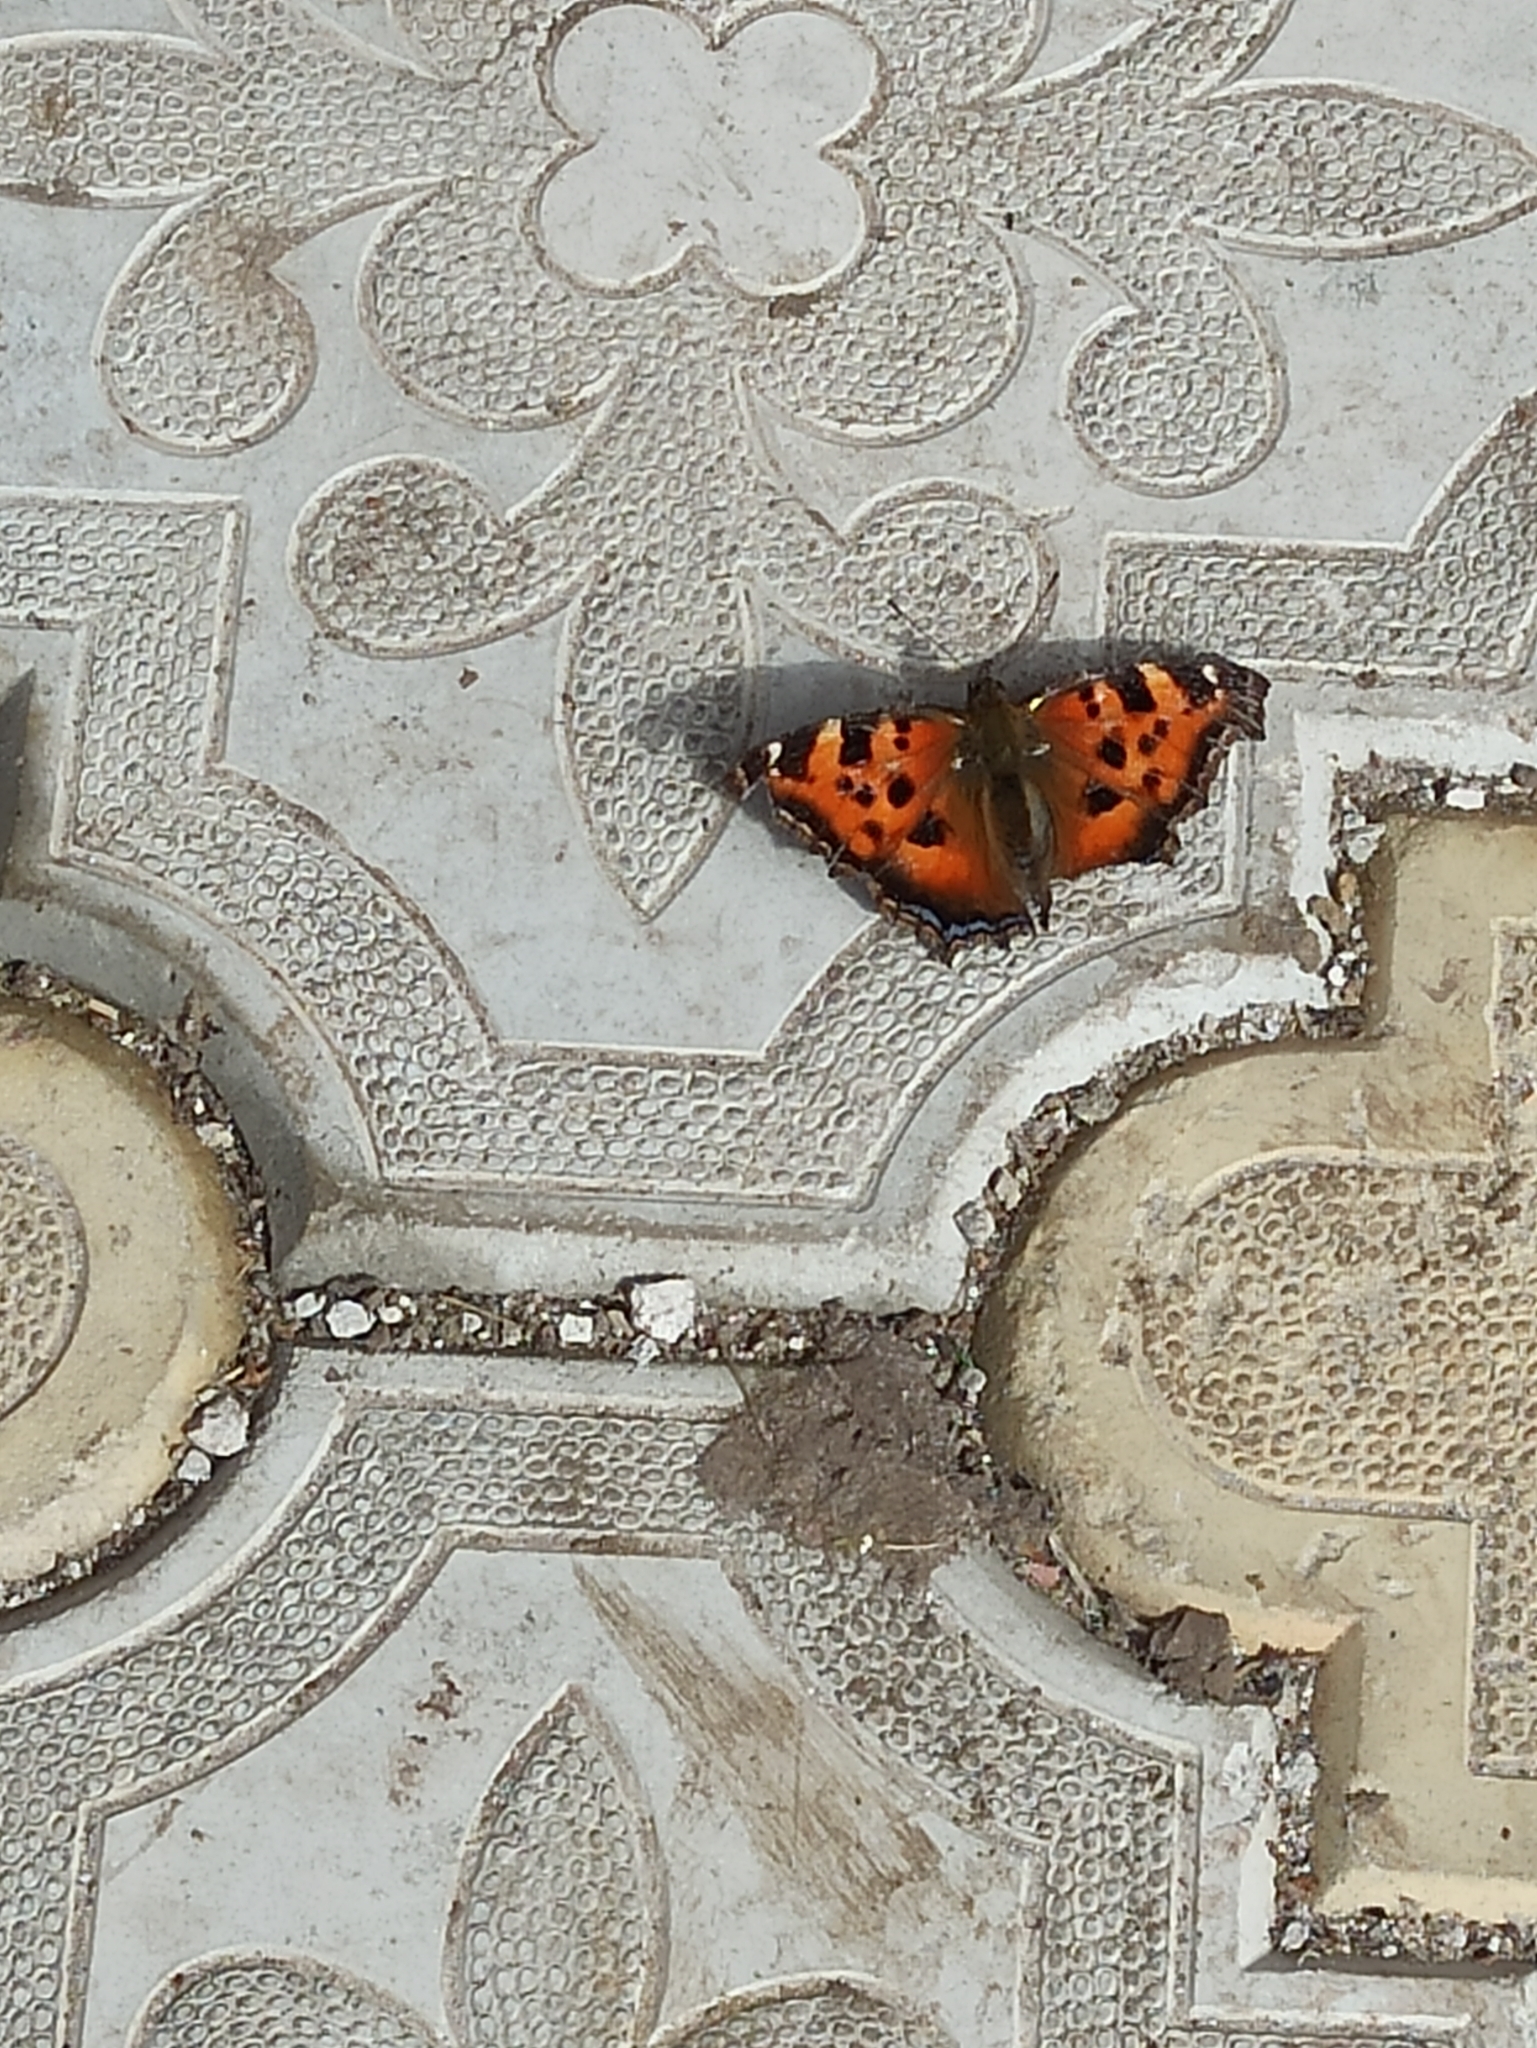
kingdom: Animalia
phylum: Arthropoda
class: Insecta
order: Lepidoptera
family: Nymphalidae
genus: Nymphalis
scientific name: Nymphalis xanthomelas
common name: Scarce tortoiseshell
